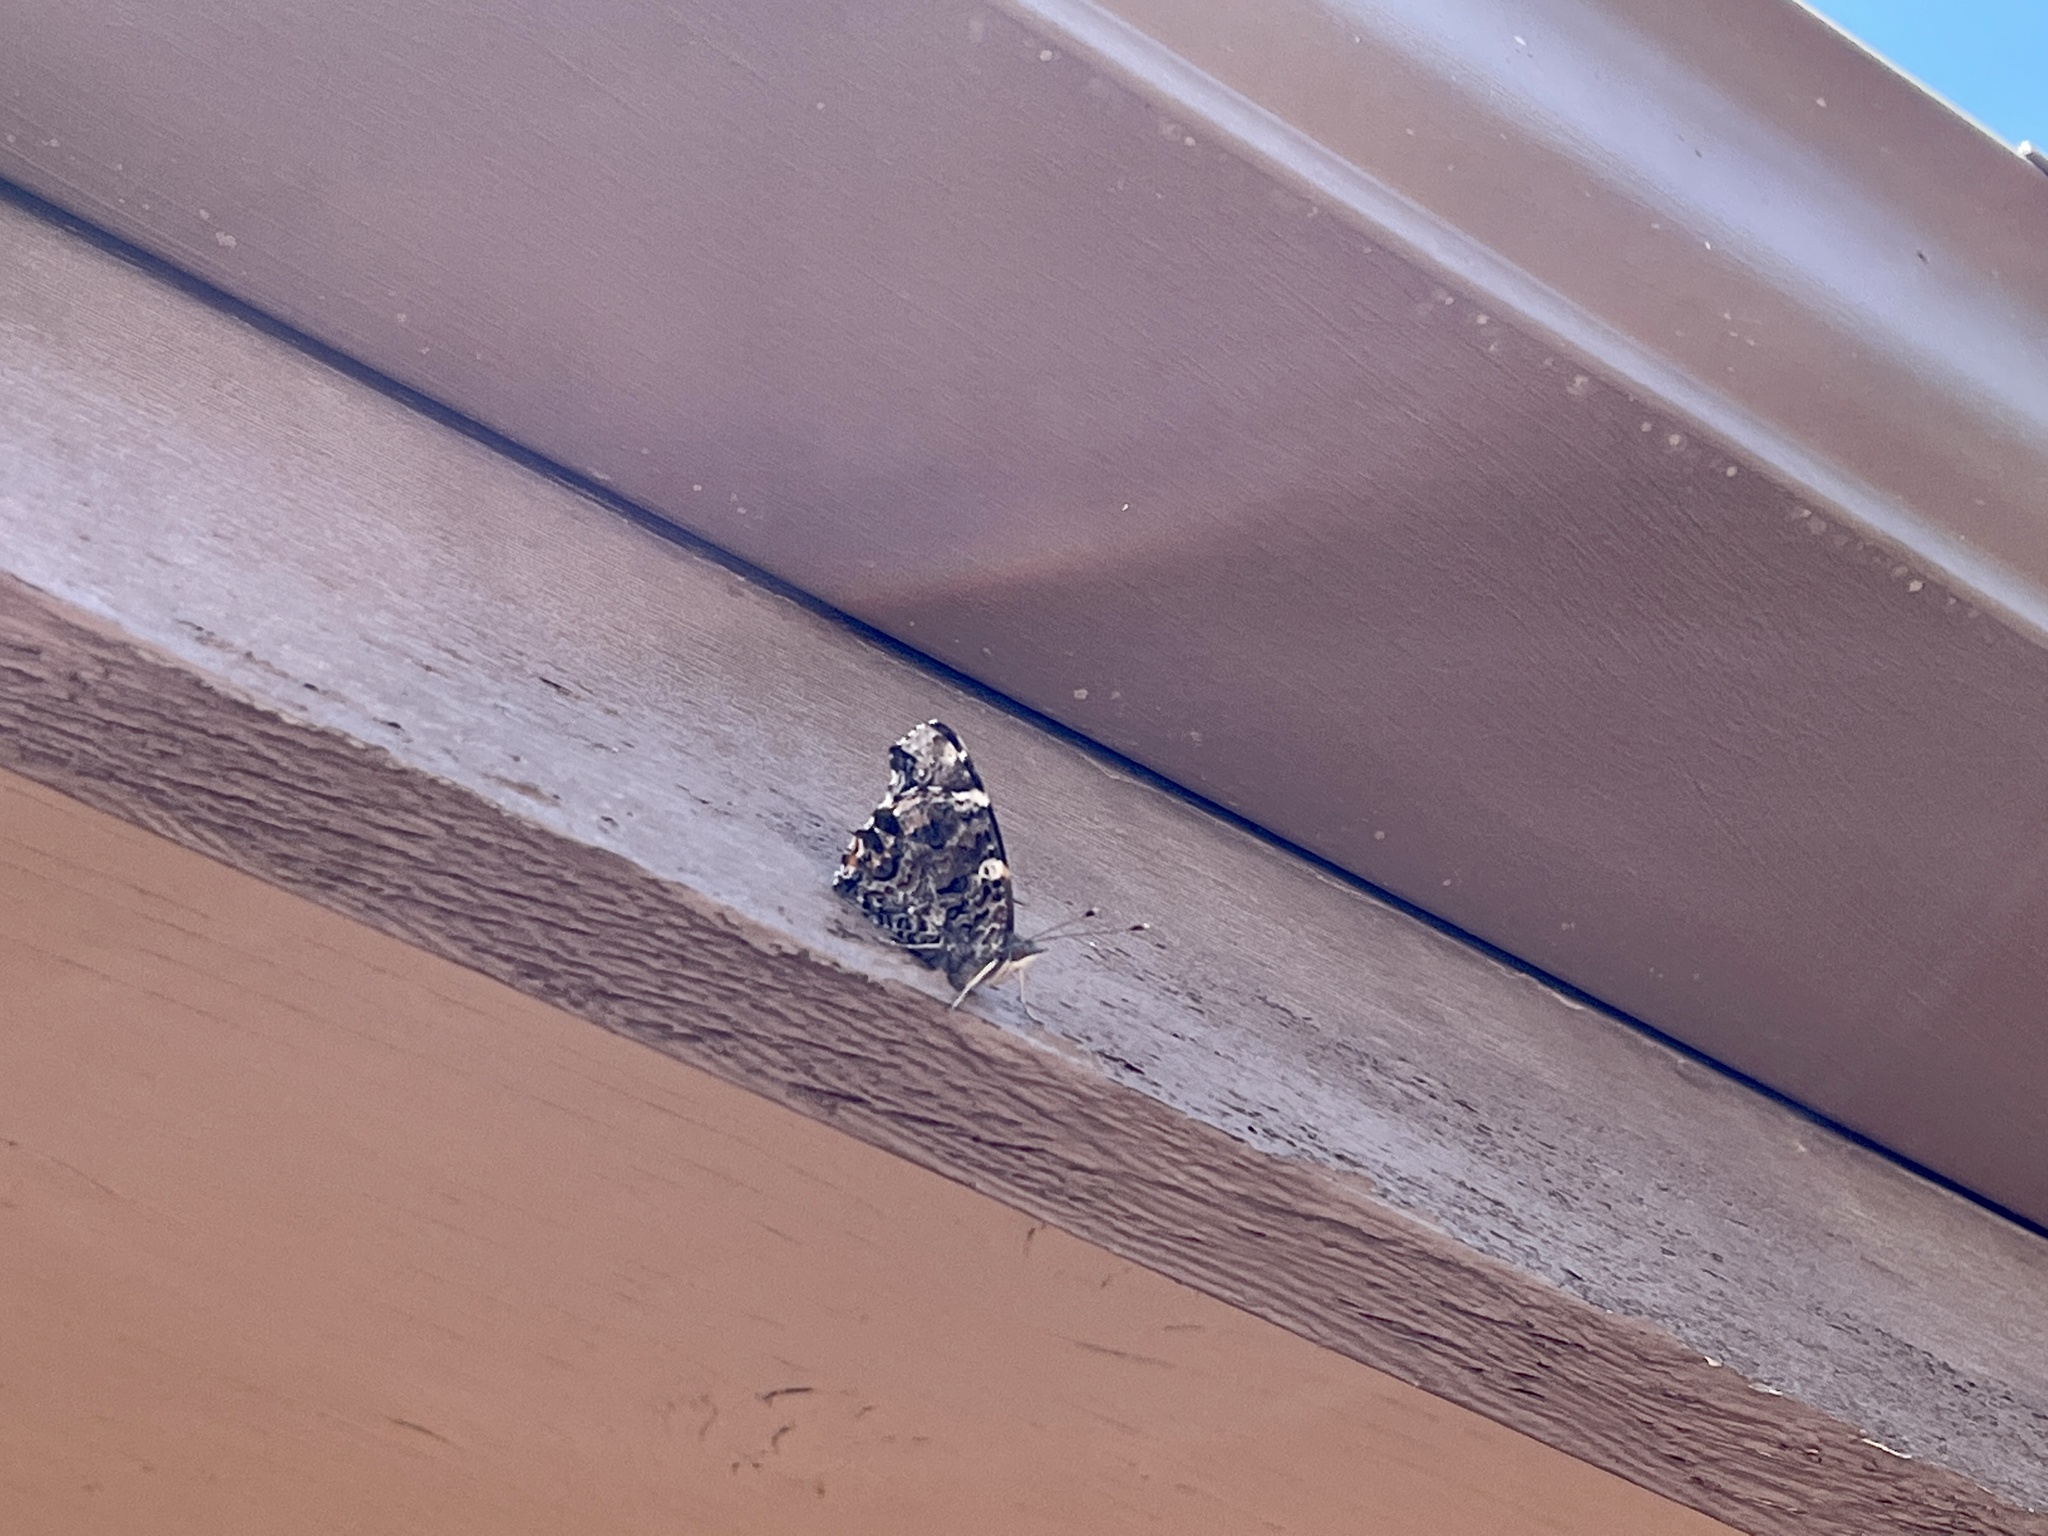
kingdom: Animalia
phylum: Arthropoda
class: Insecta
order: Lepidoptera
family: Nymphalidae
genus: Vanessa
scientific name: Vanessa atalanta
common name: Red admiral
